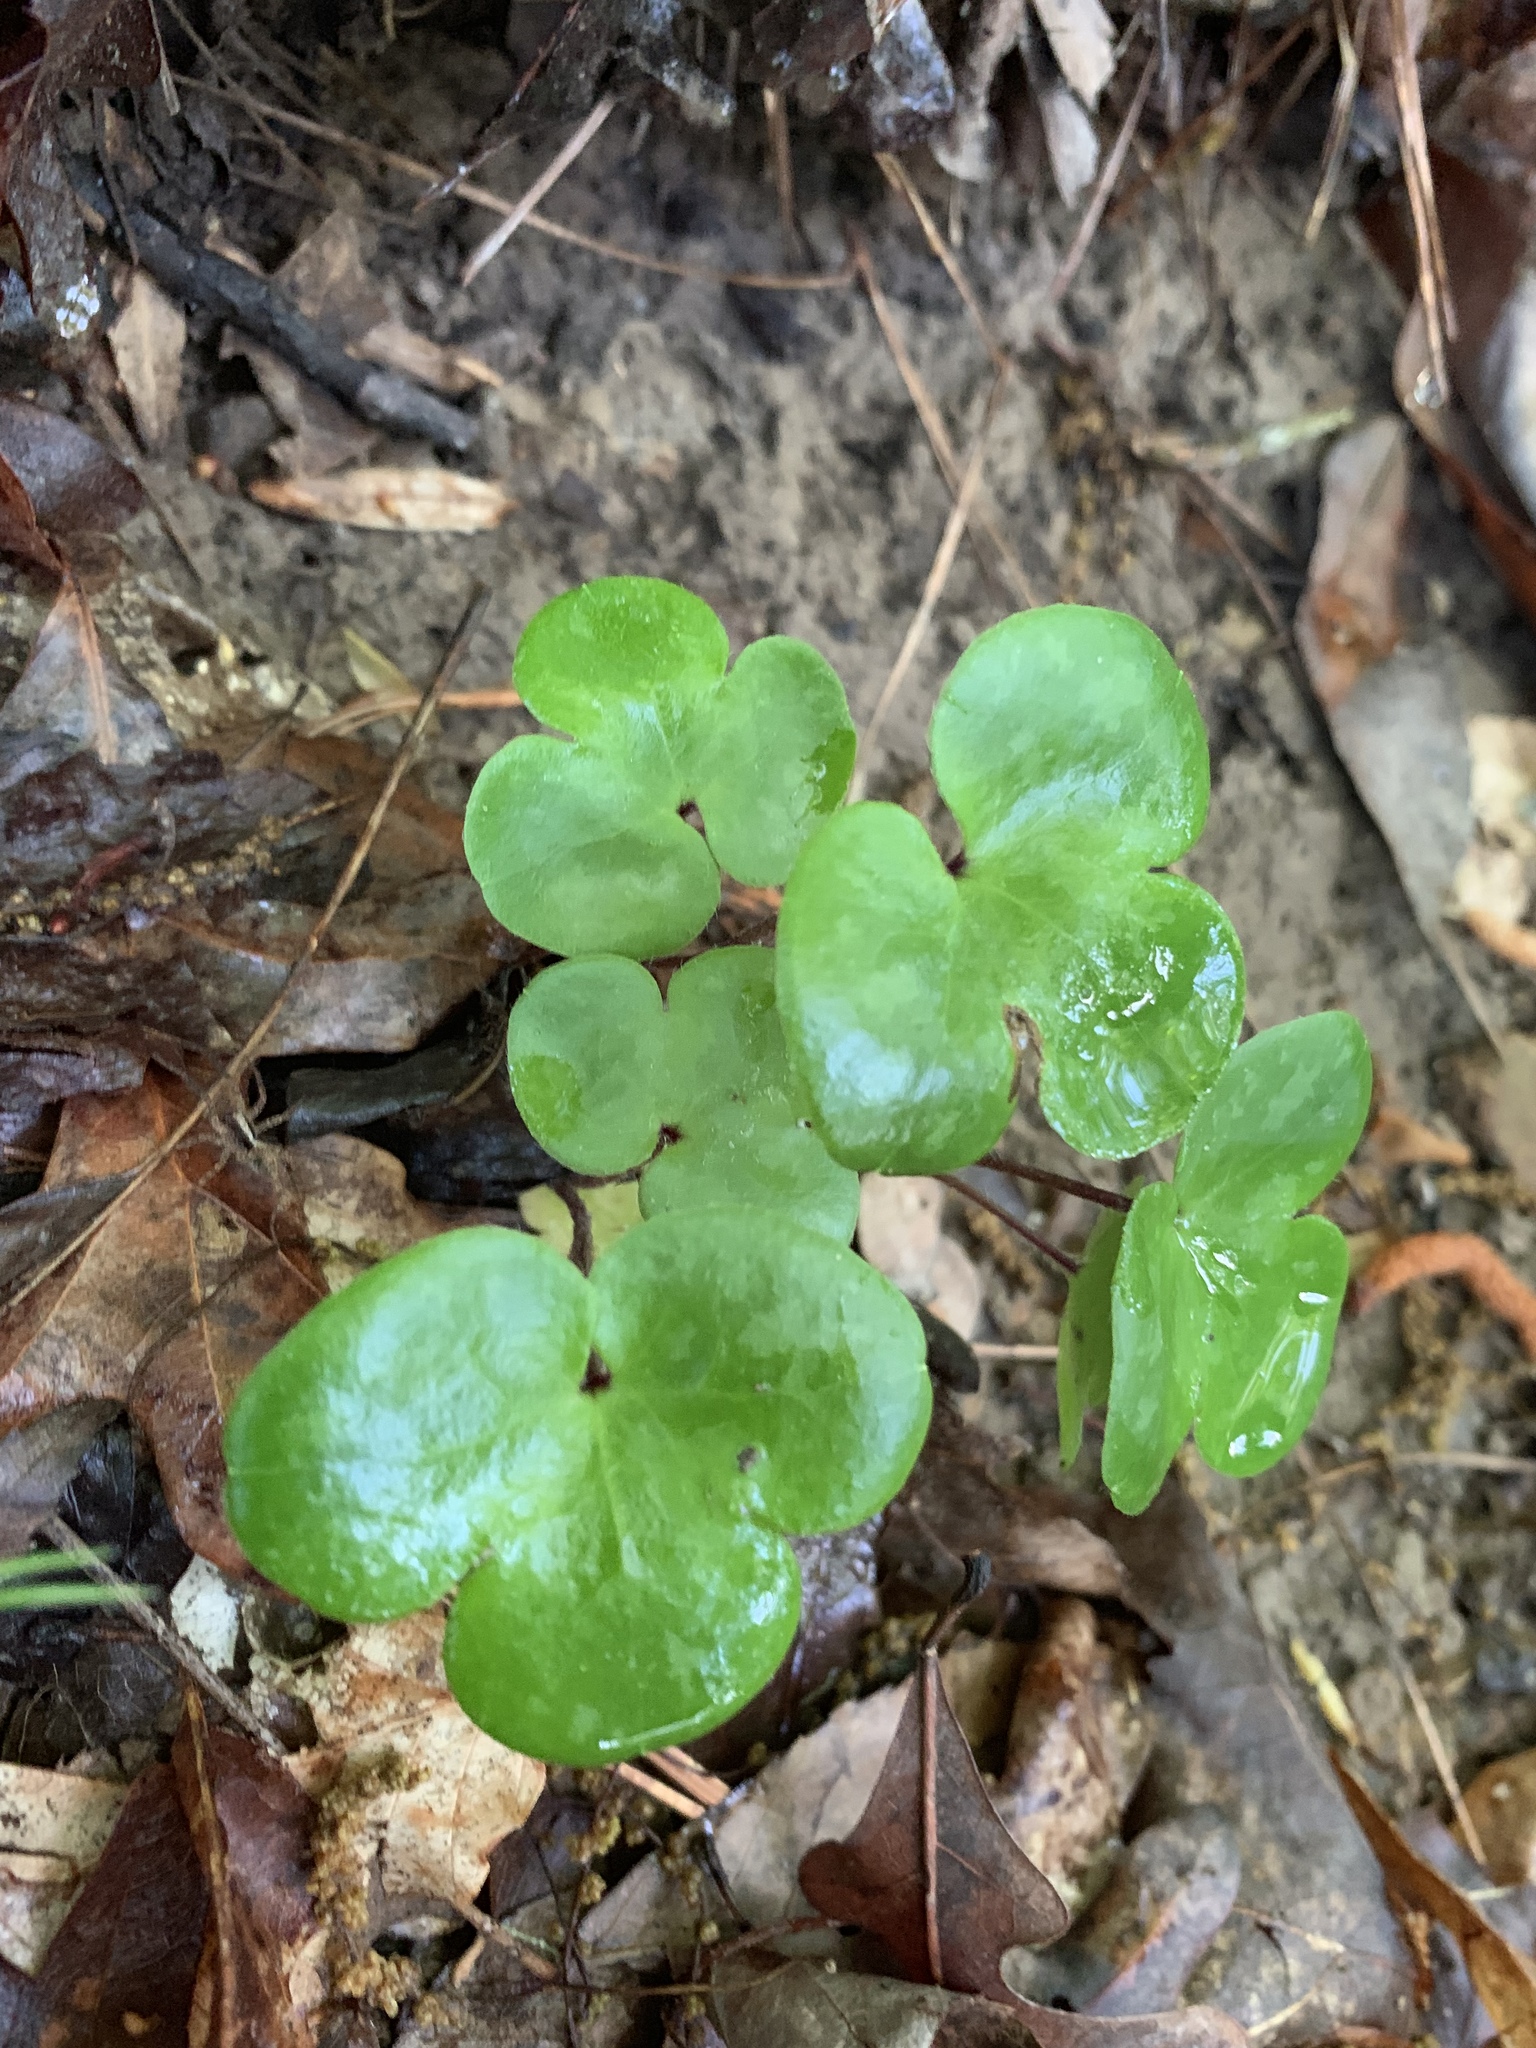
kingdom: Plantae
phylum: Tracheophyta
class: Magnoliopsida
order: Ranunculales
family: Ranunculaceae
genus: Hepatica
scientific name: Hepatica americana
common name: American hepatica
